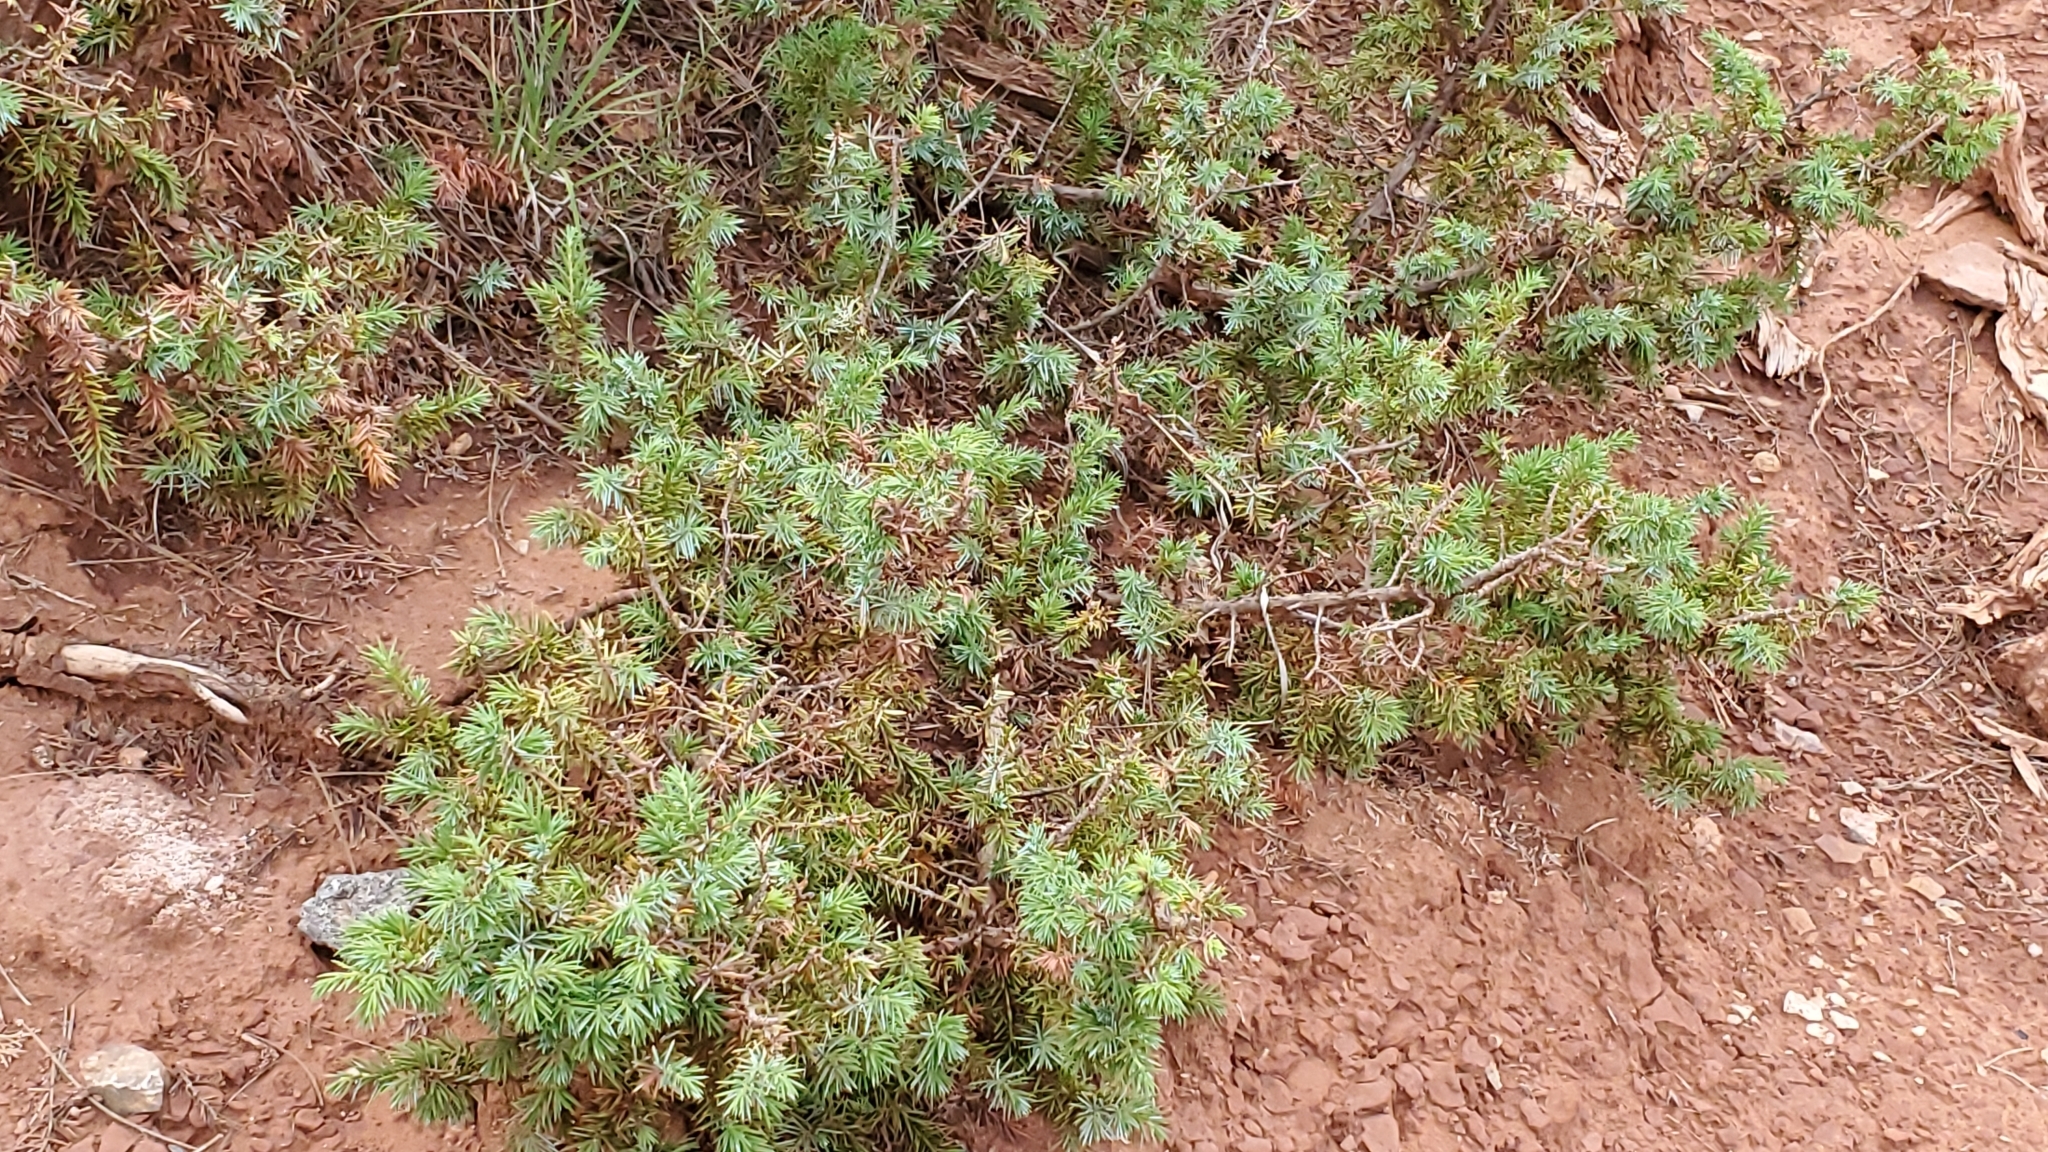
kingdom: Plantae
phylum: Tracheophyta
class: Pinopsida
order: Pinales
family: Cupressaceae
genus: Juniperus
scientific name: Juniperus communis
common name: Common juniper
